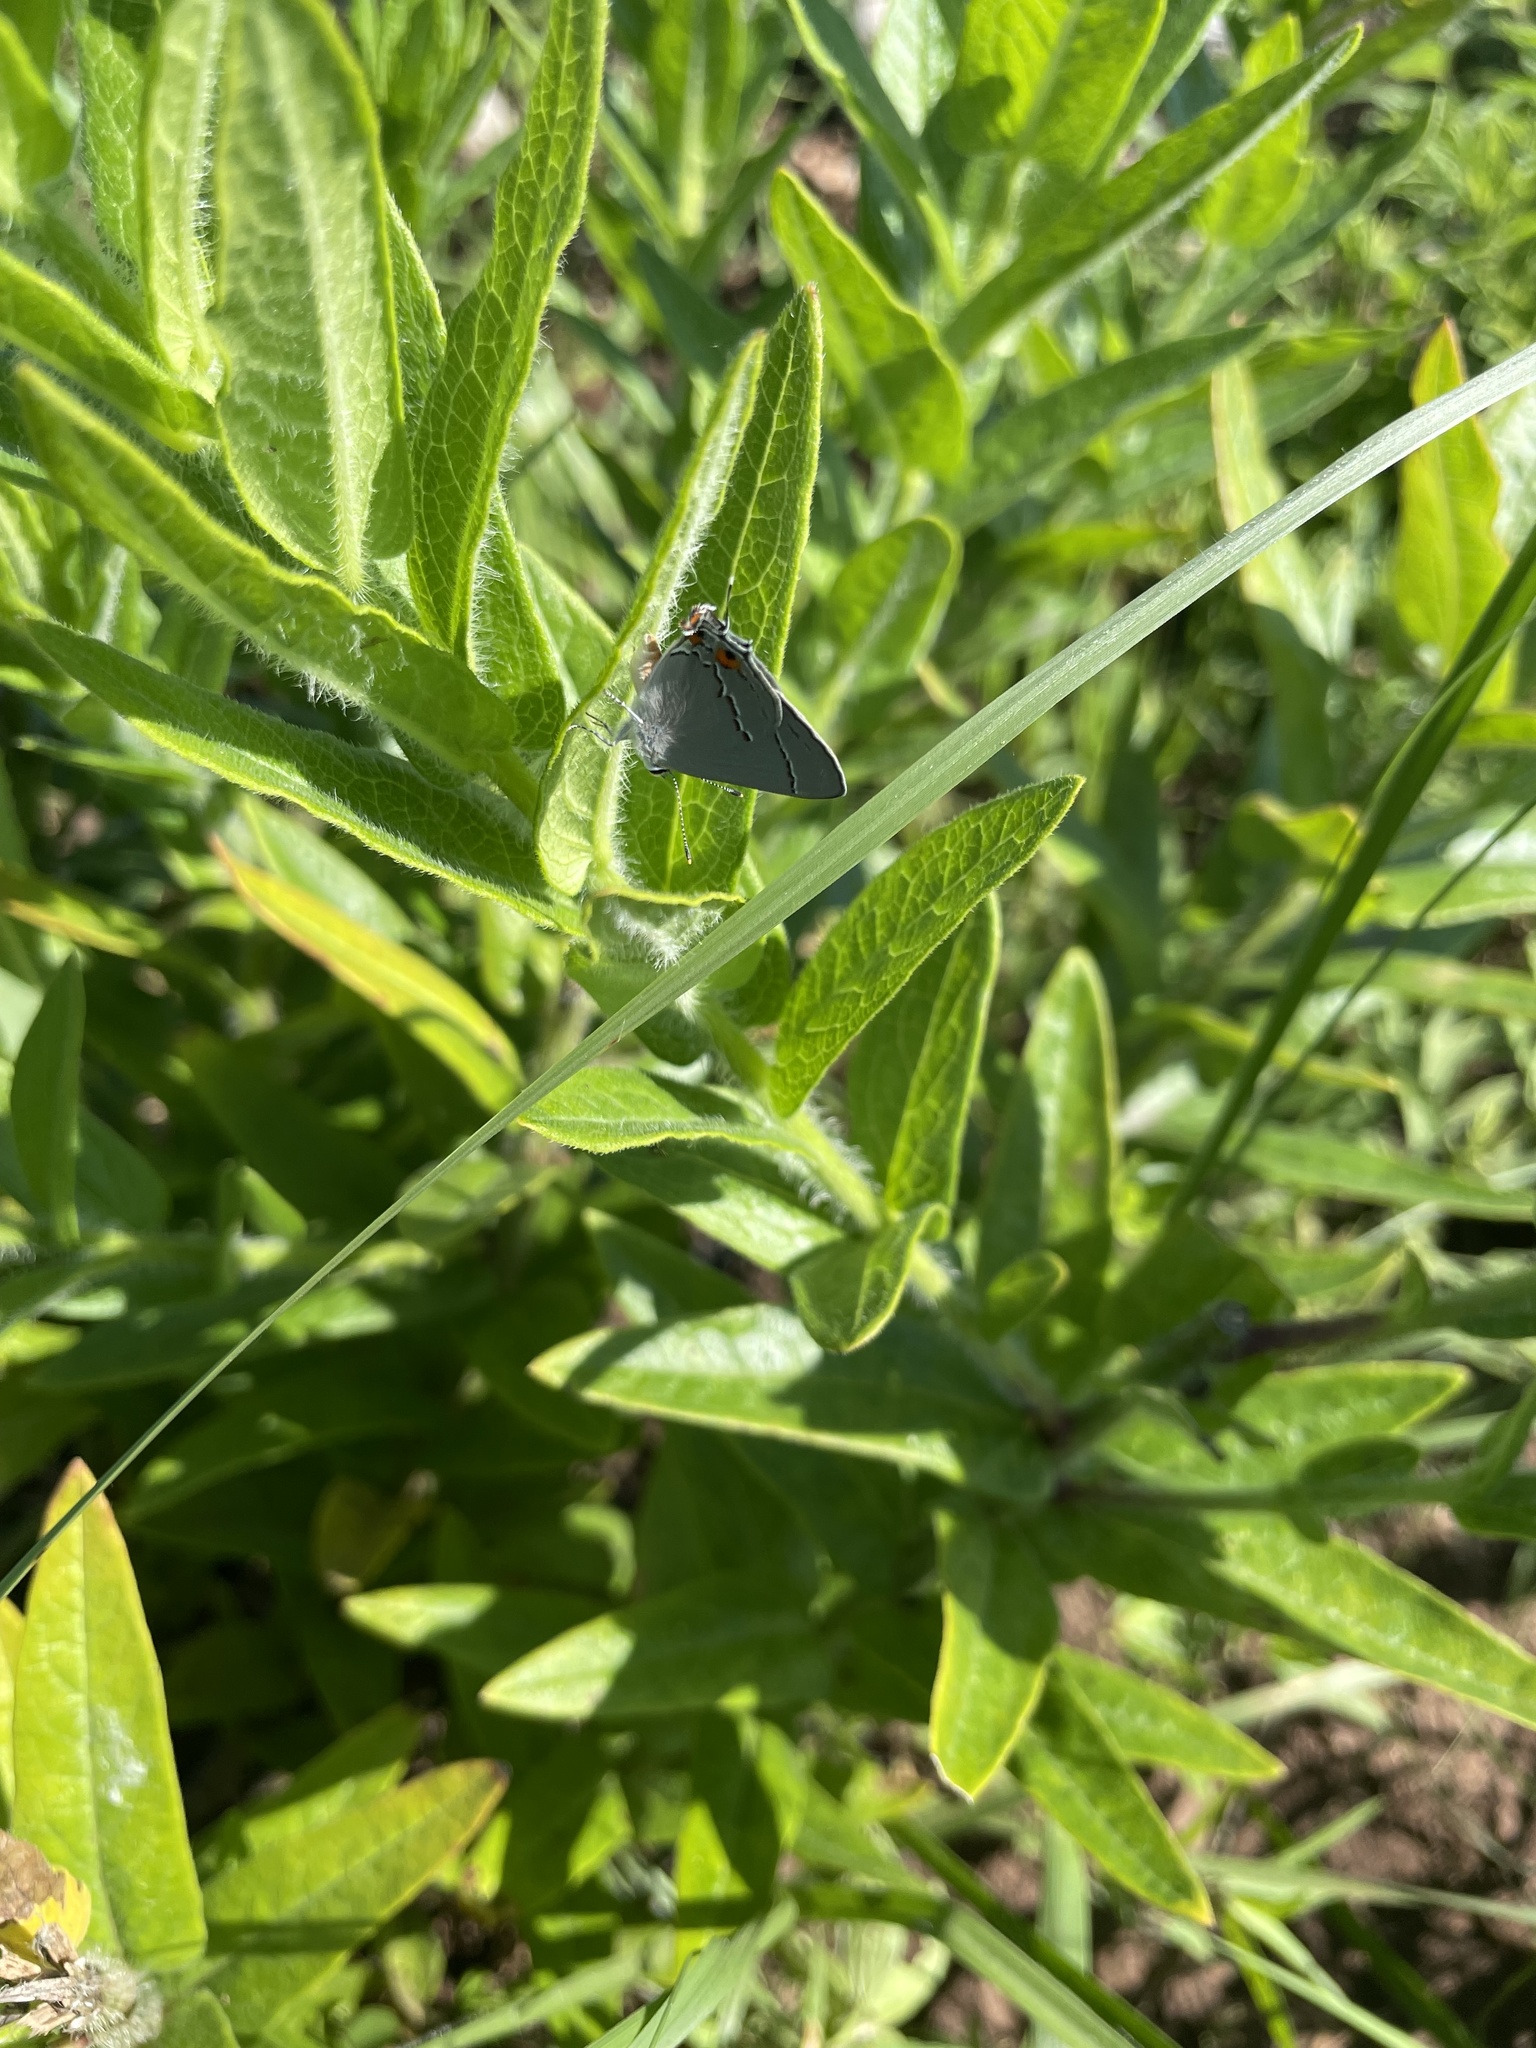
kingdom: Animalia
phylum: Arthropoda
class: Insecta
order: Lepidoptera
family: Lycaenidae
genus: Strymon
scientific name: Strymon melinus
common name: Gray hairstreak
